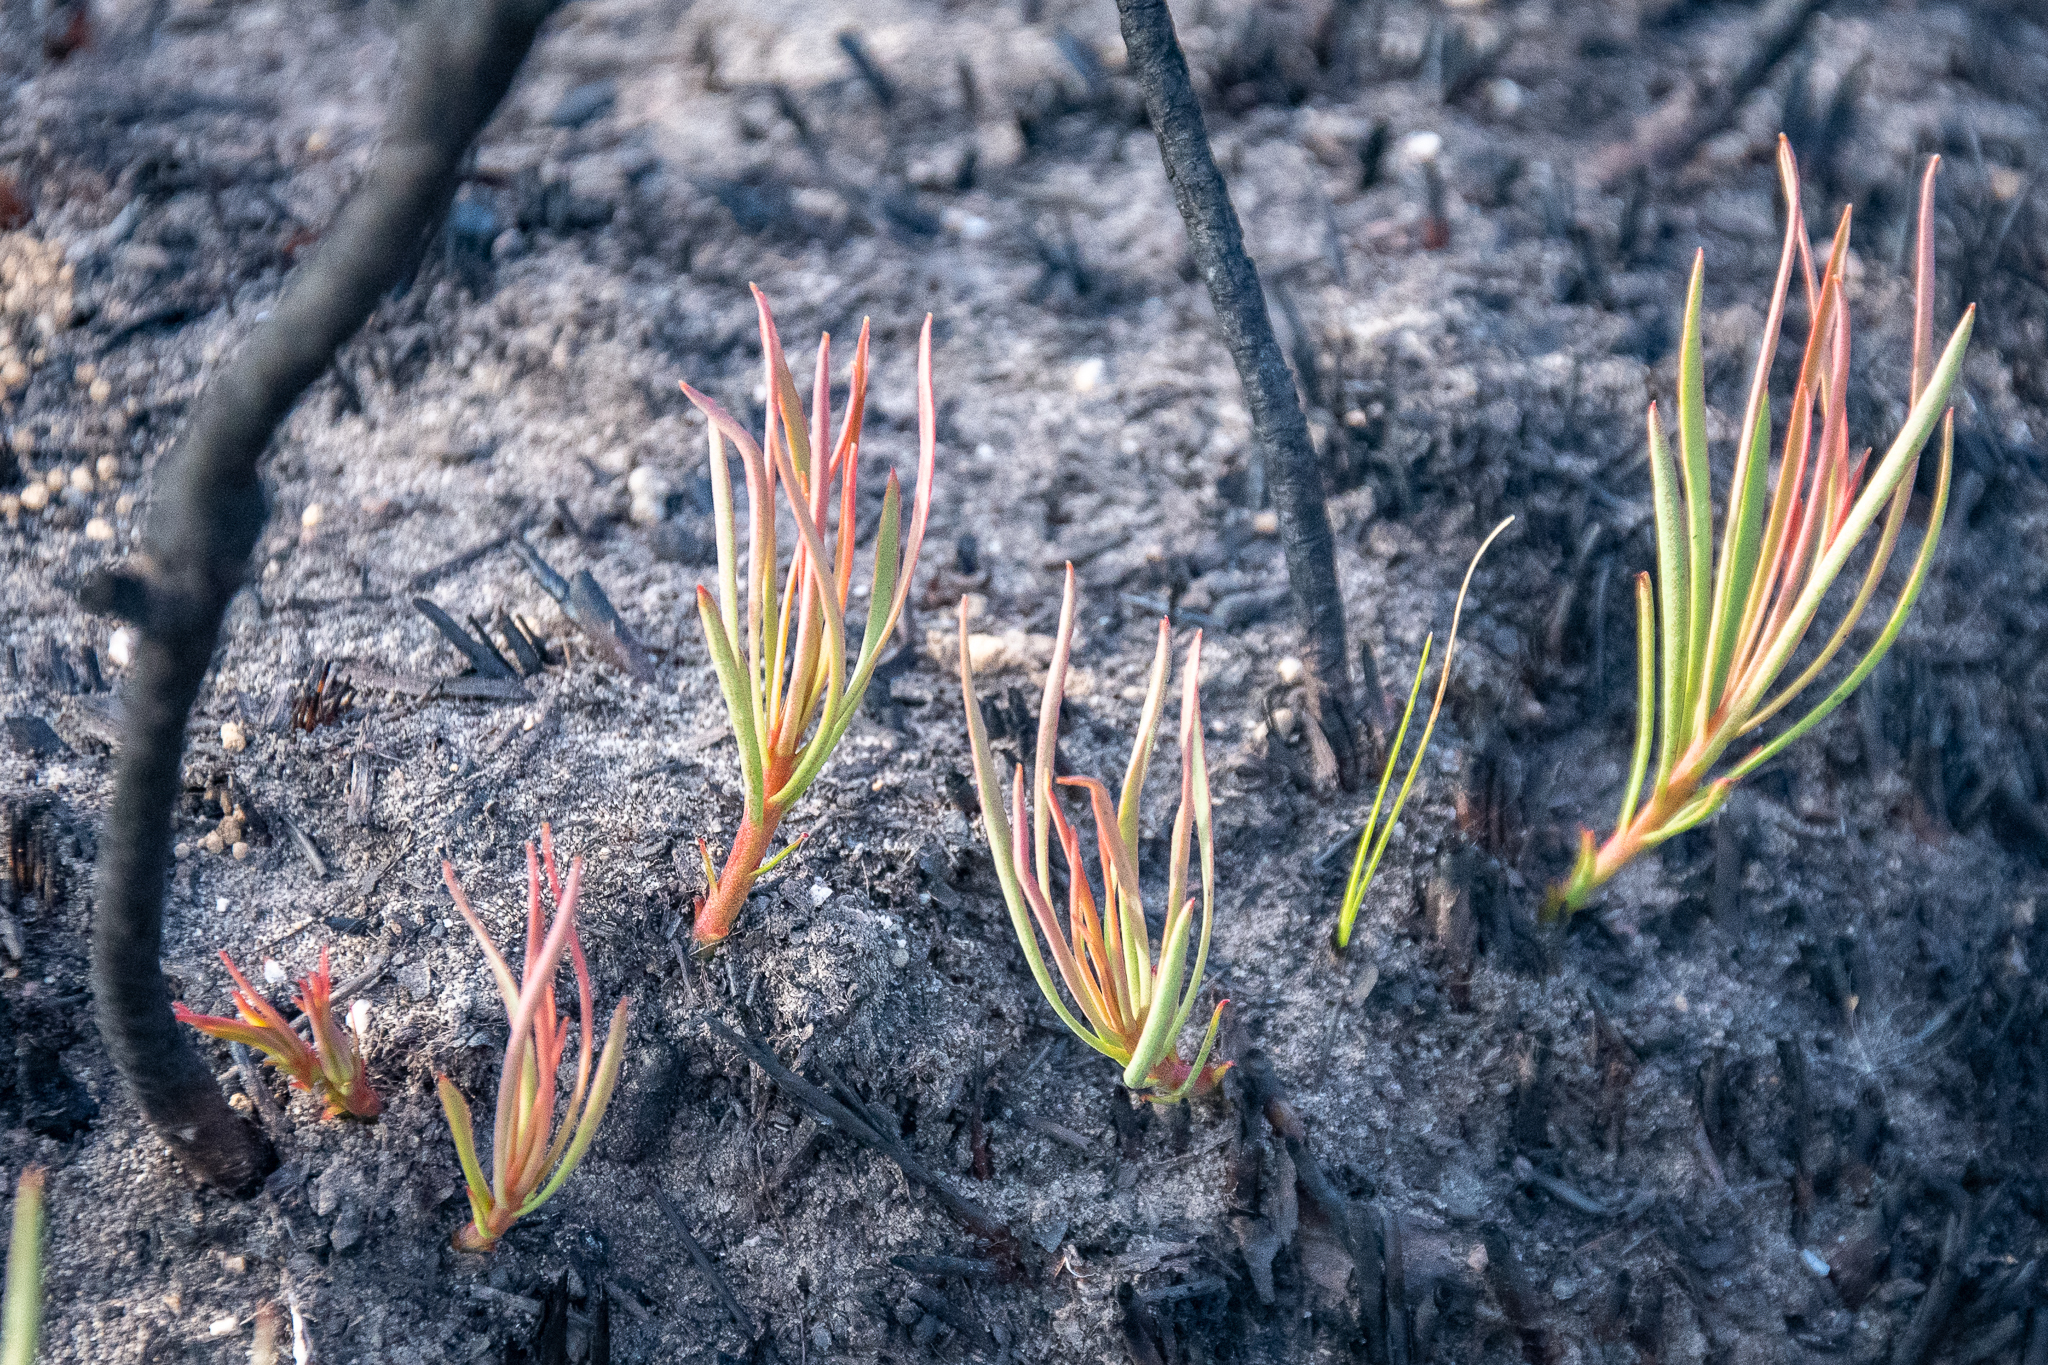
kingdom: Plantae
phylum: Tracheophyta
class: Magnoliopsida
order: Proteales
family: Proteaceae
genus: Protea
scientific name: Protea angustata
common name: Kleinmond sugarbush
